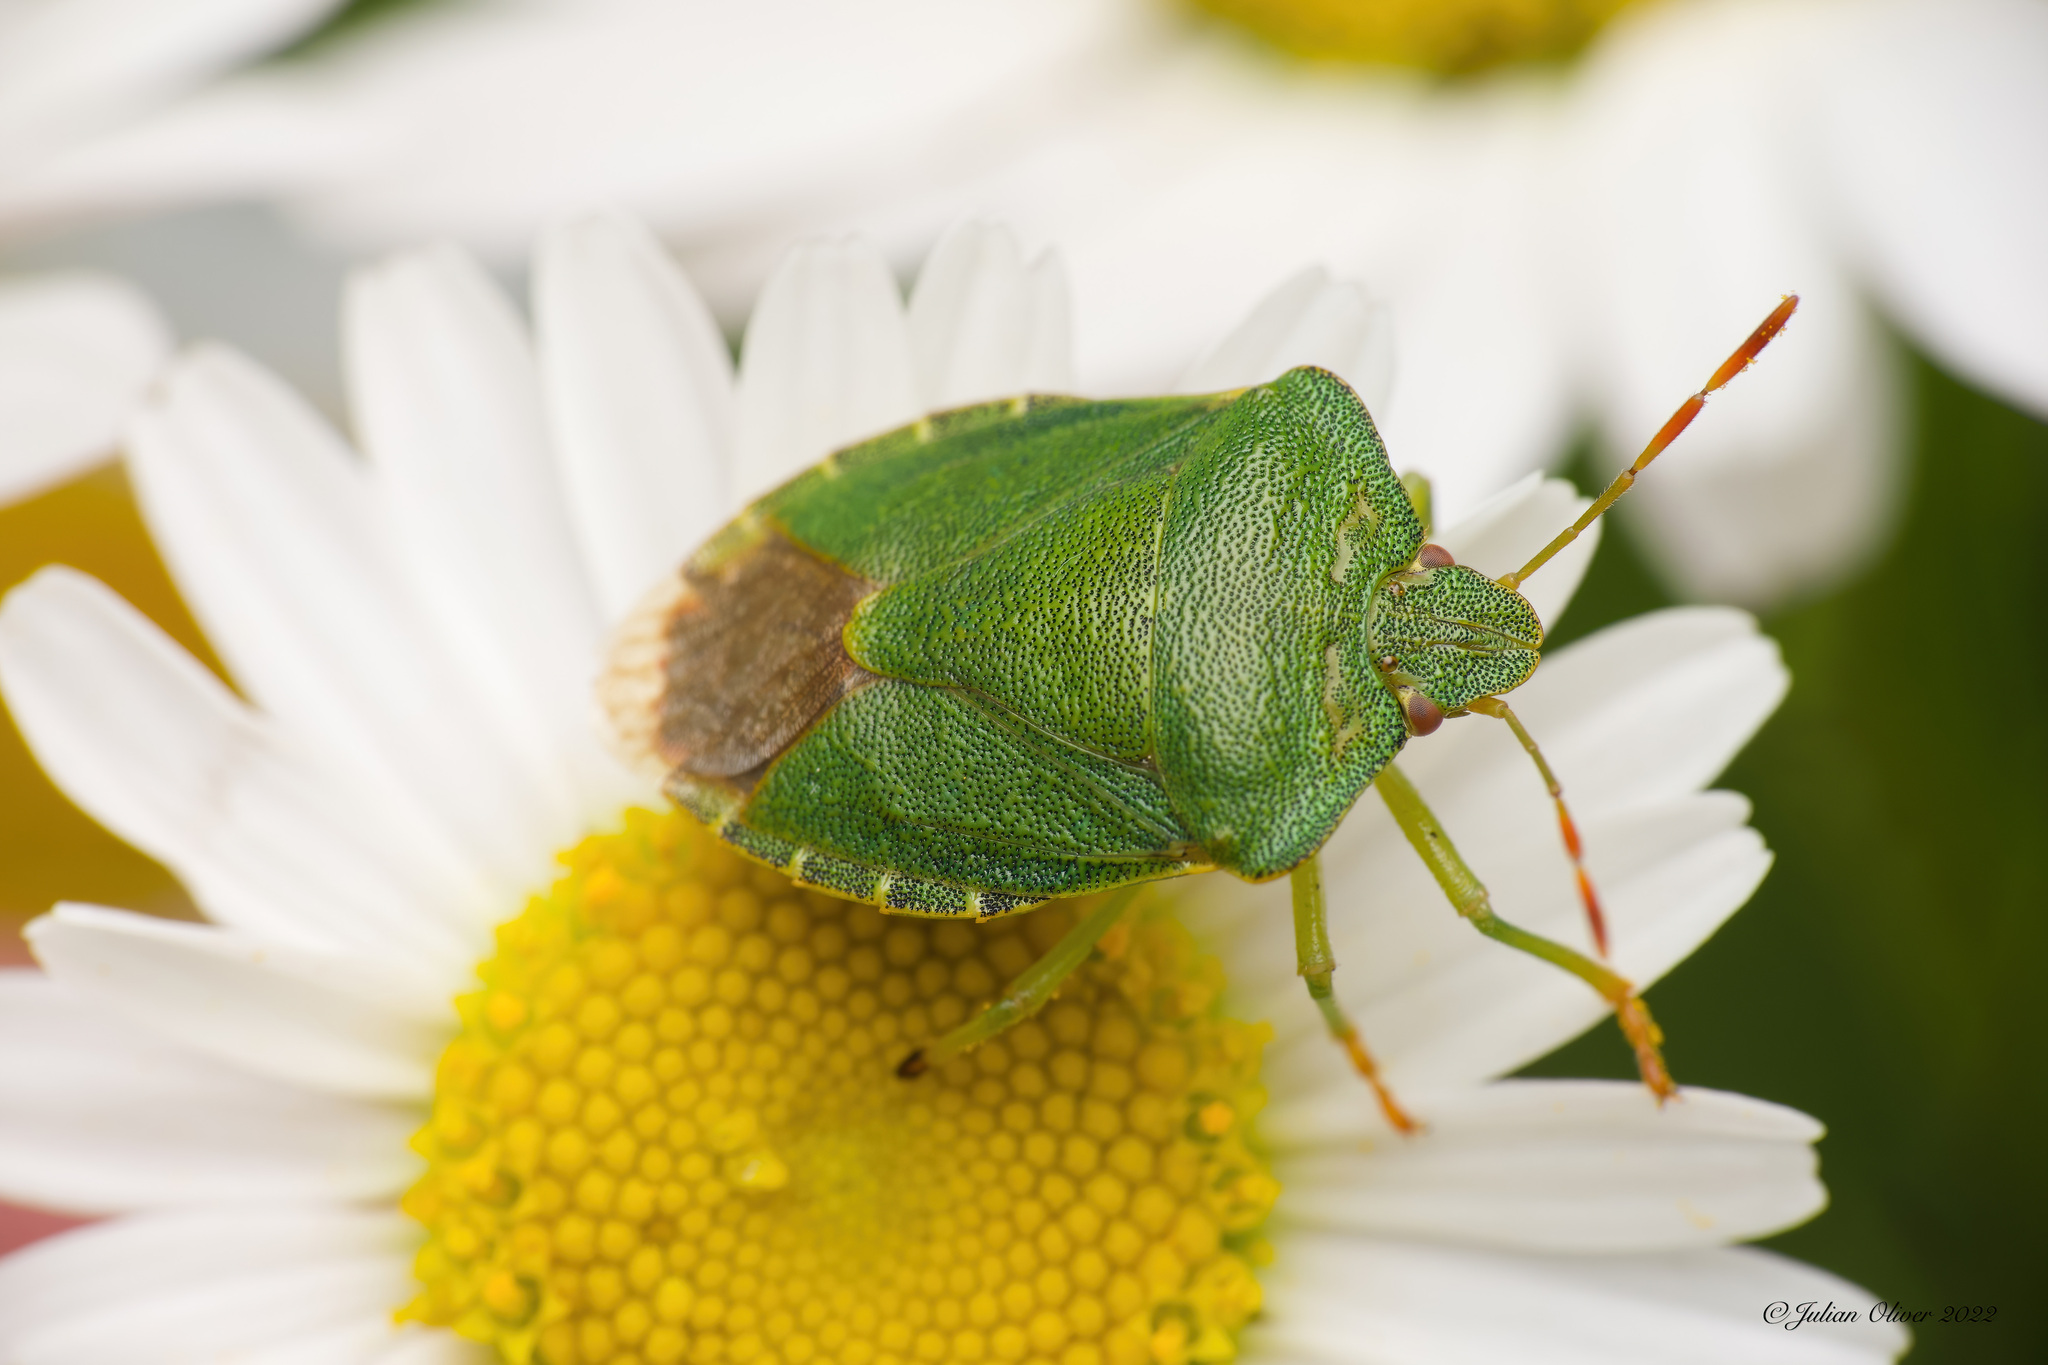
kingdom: Animalia
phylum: Arthropoda
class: Insecta
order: Hemiptera
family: Pentatomidae
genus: Palomena
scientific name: Palomena prasina
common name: Green shieldbug
